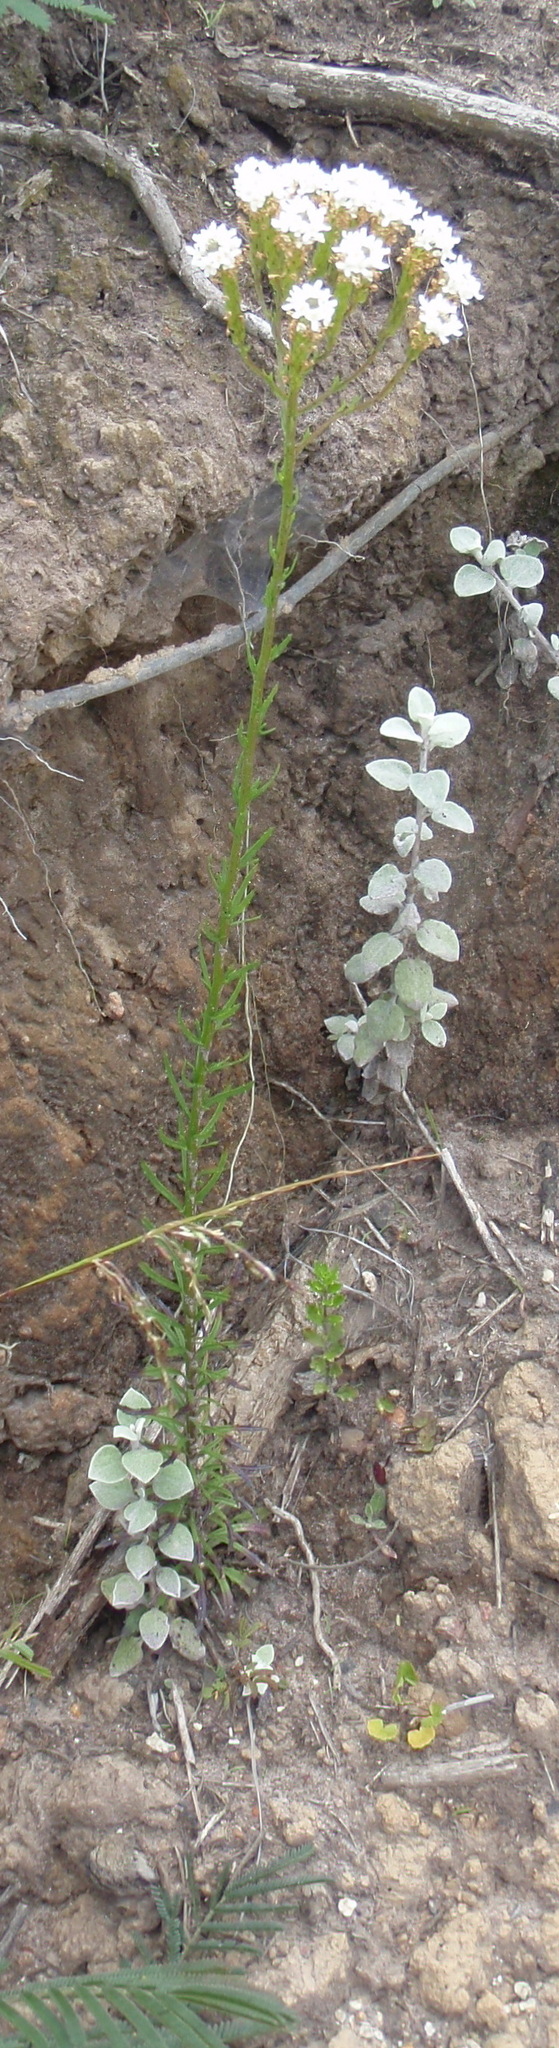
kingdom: Plantae
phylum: Tracheophyta
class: Magnoliopsida
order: Lamiales
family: Scrophulariaceae
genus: Pseudoselago
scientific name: Pseudoselago outeniquensis
